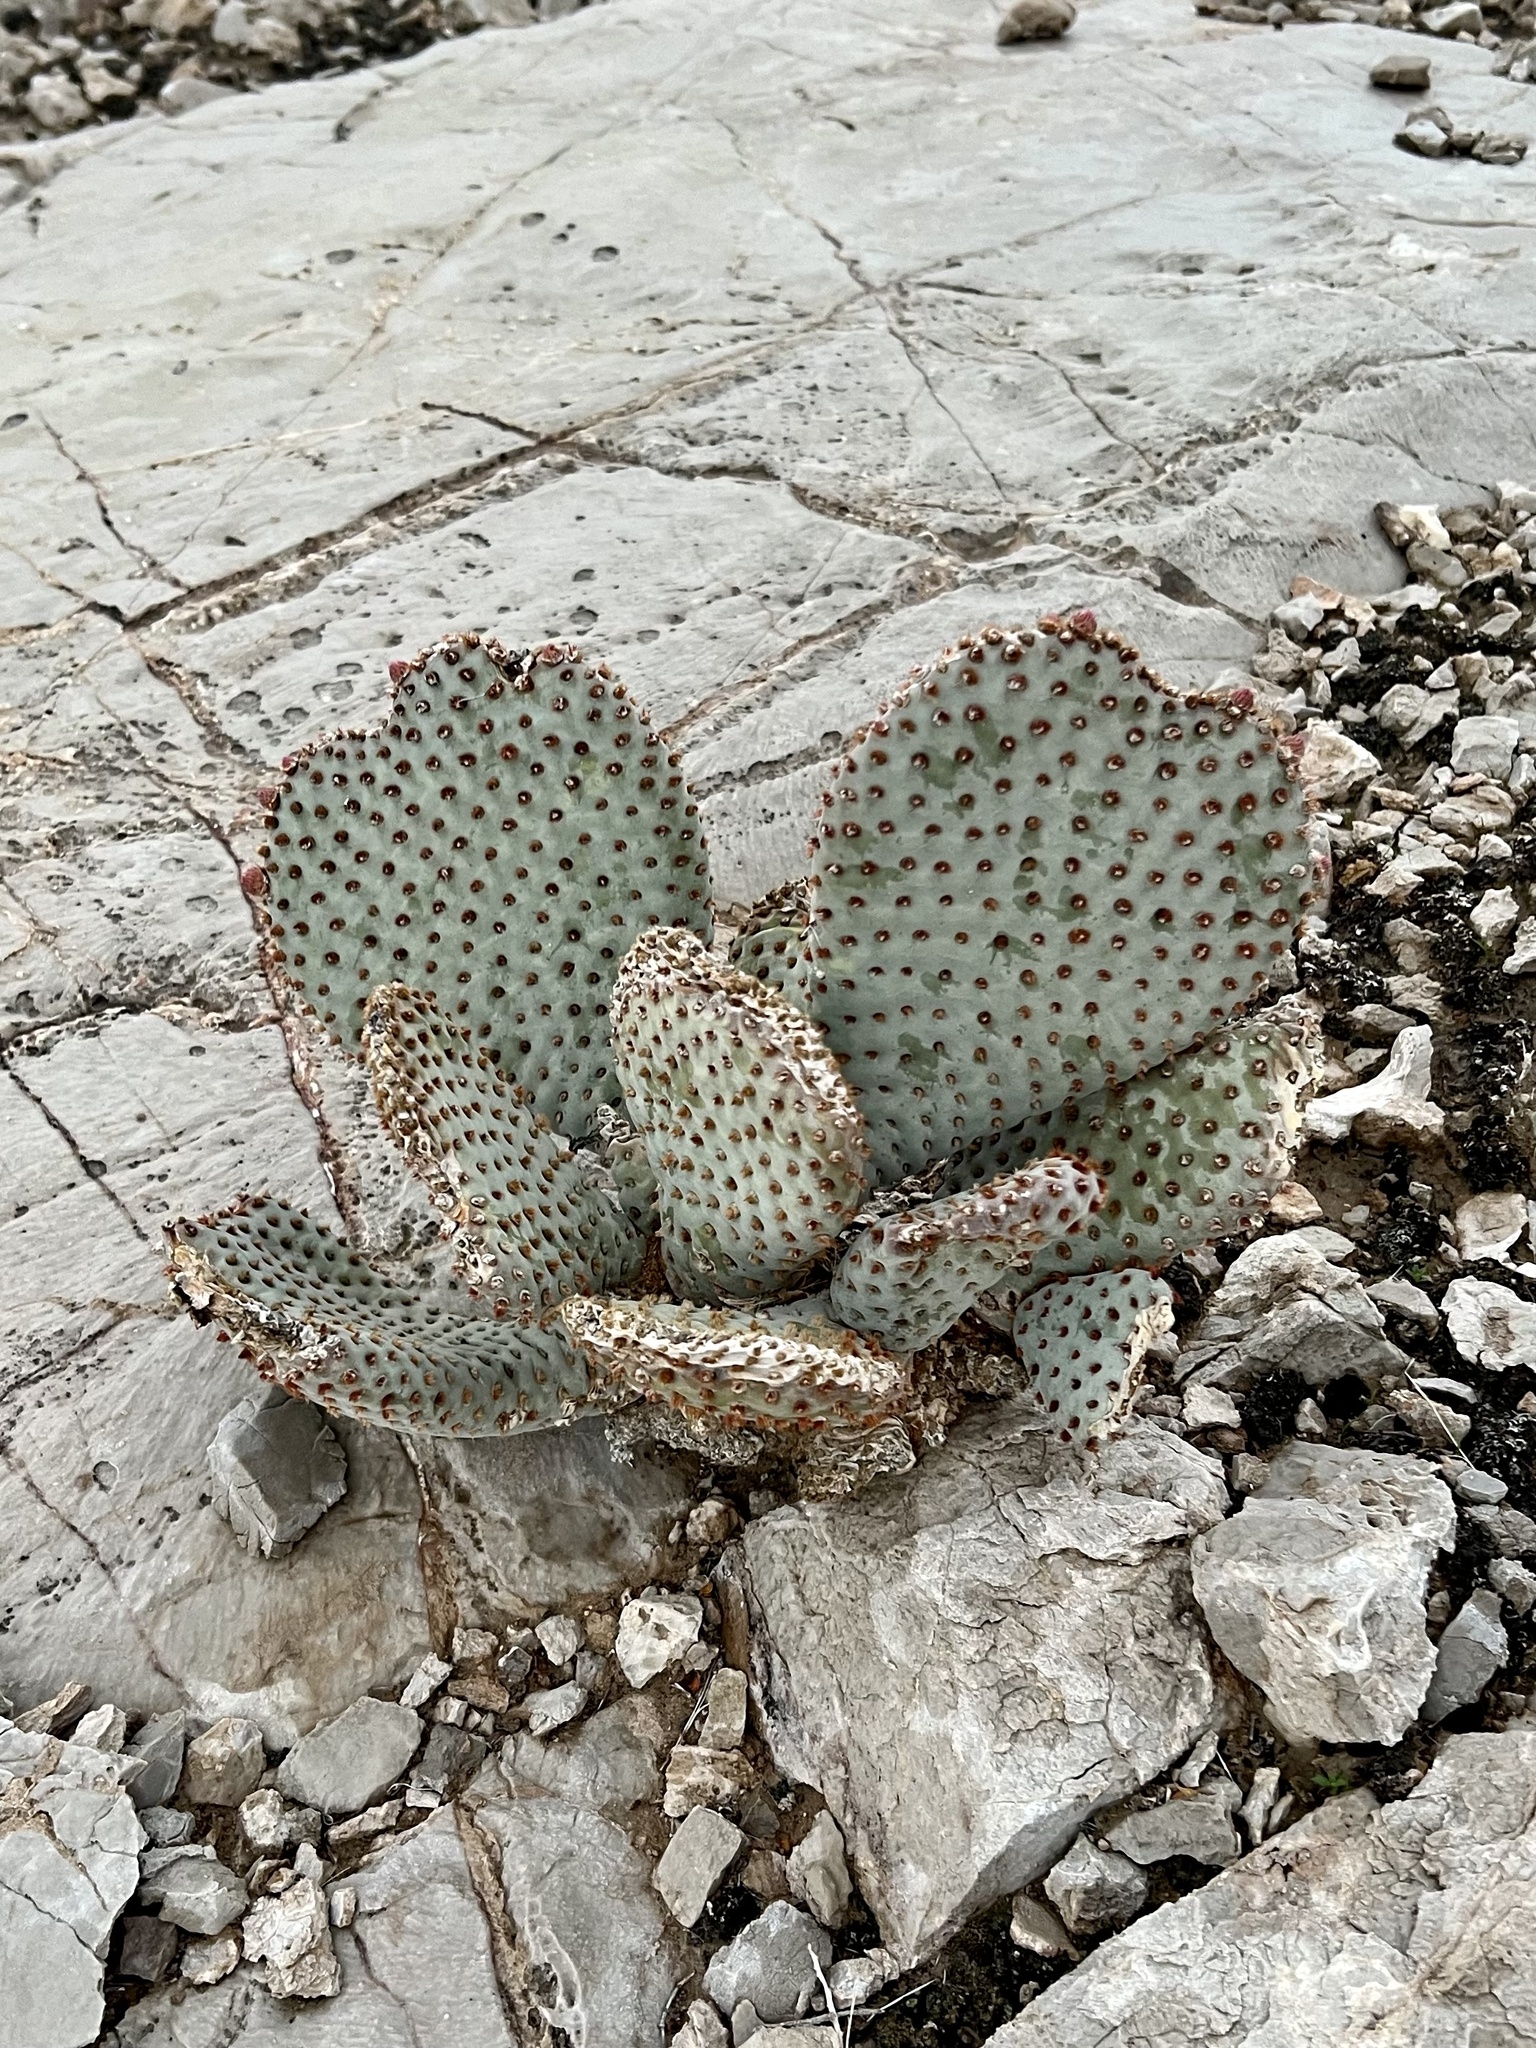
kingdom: Plantae
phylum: Tracheophyta
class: Magnoliopsida
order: Caryophyllales
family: Cactaceae
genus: Opuntia
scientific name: Opuntia basilaris
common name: Beavertail prickly-pear
